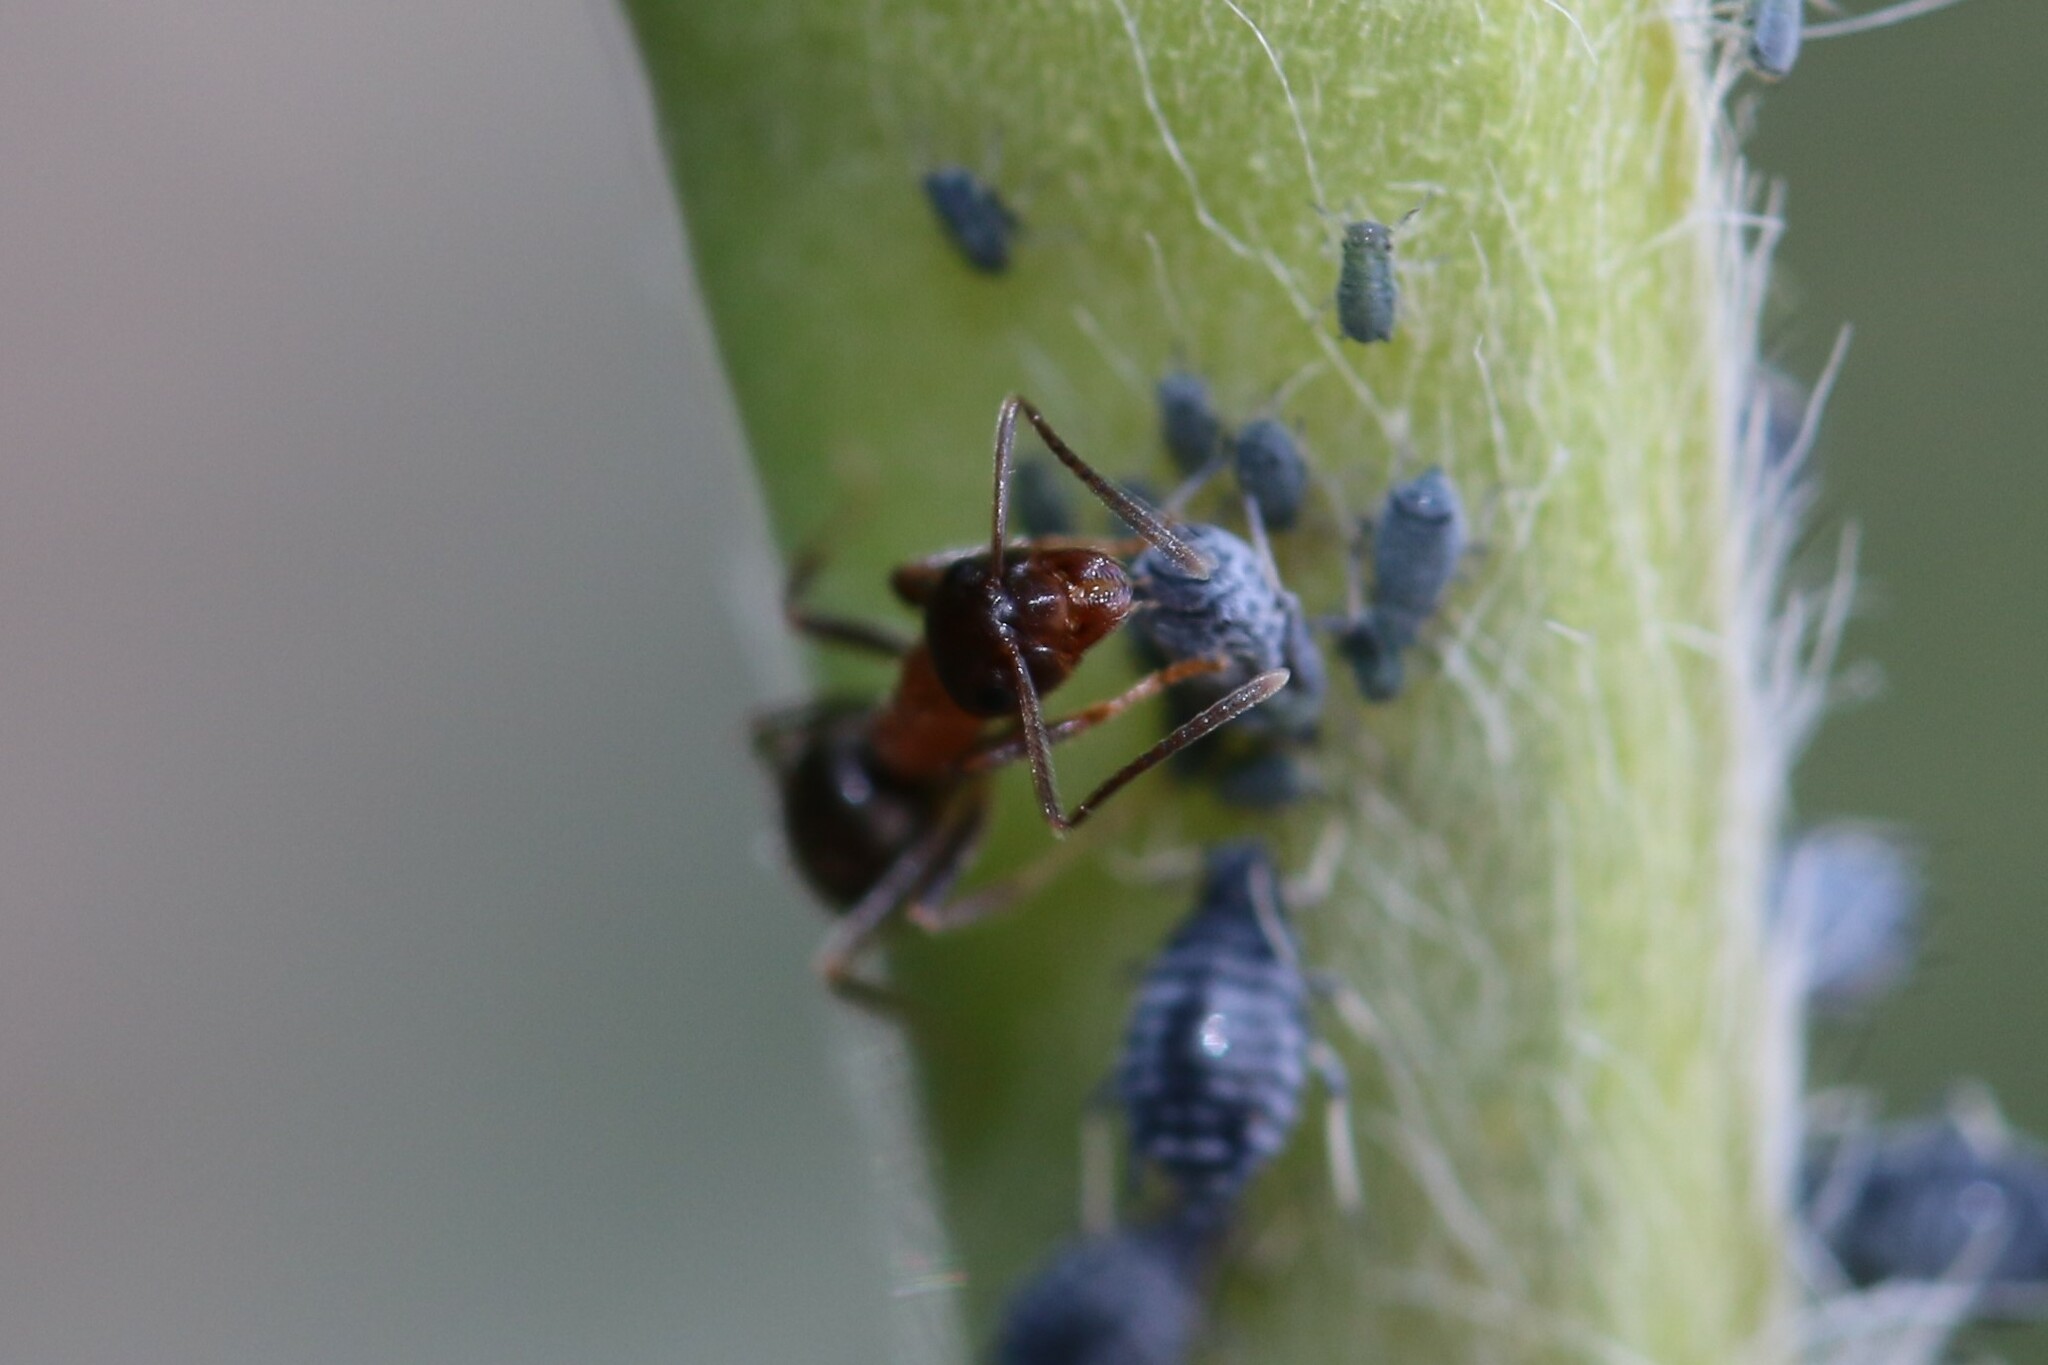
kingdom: Animalia
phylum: Arthropoda
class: Insecta
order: Hymenoptera
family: Formicidae
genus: Lasius
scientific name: Lasius emarginatus
